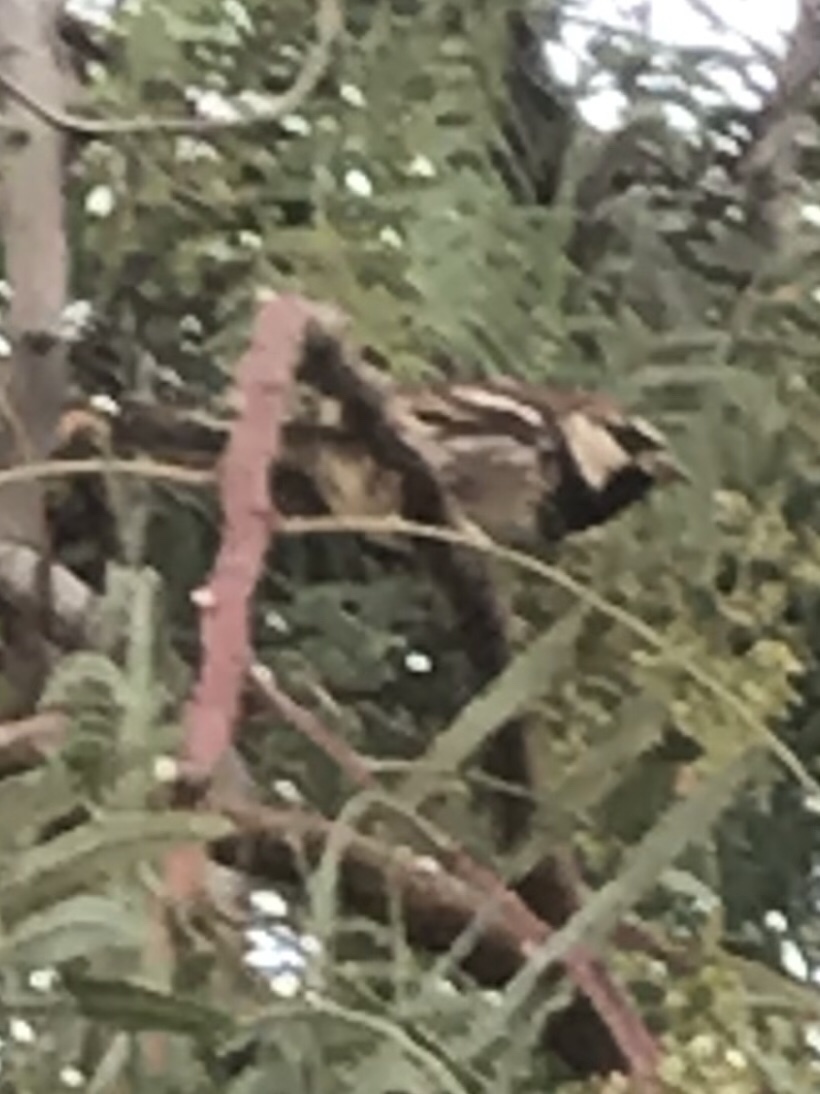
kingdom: Animalia
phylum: Chordata
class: Aves
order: Passeriformes
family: Passeridae
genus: Passer
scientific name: Passer hispaniolensis
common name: Spanish sparrow
